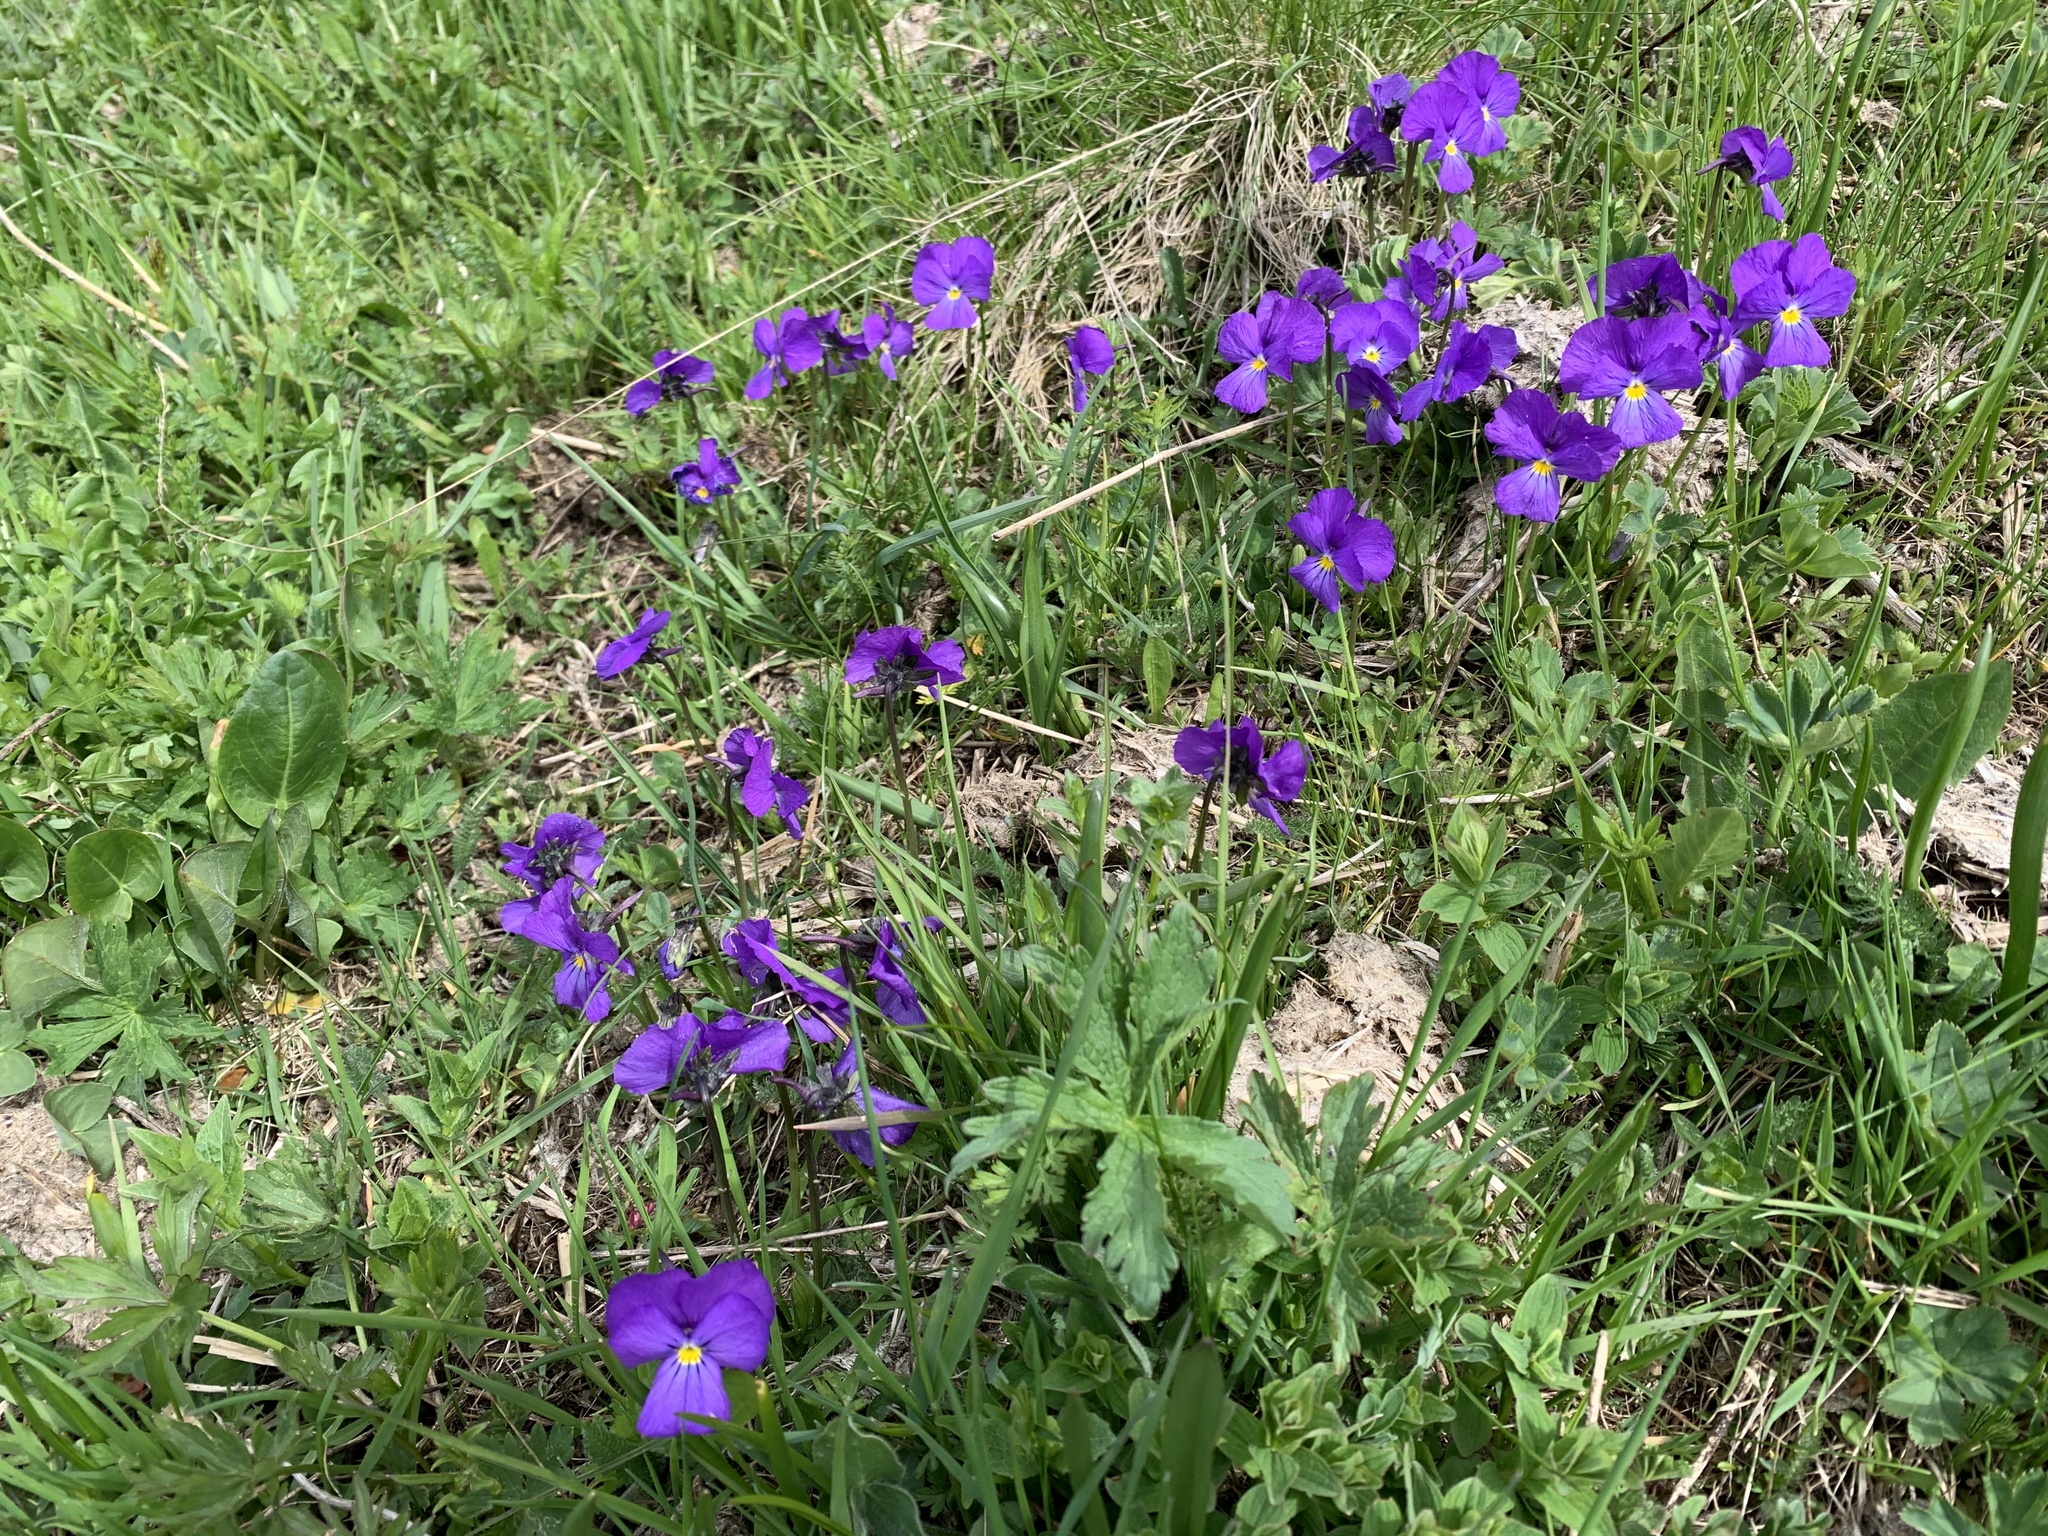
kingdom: Plantae
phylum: Tracheophyta
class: Magnoliopsida
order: Malpighiales
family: Violaceae
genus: Viola
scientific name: Viola calcarata
